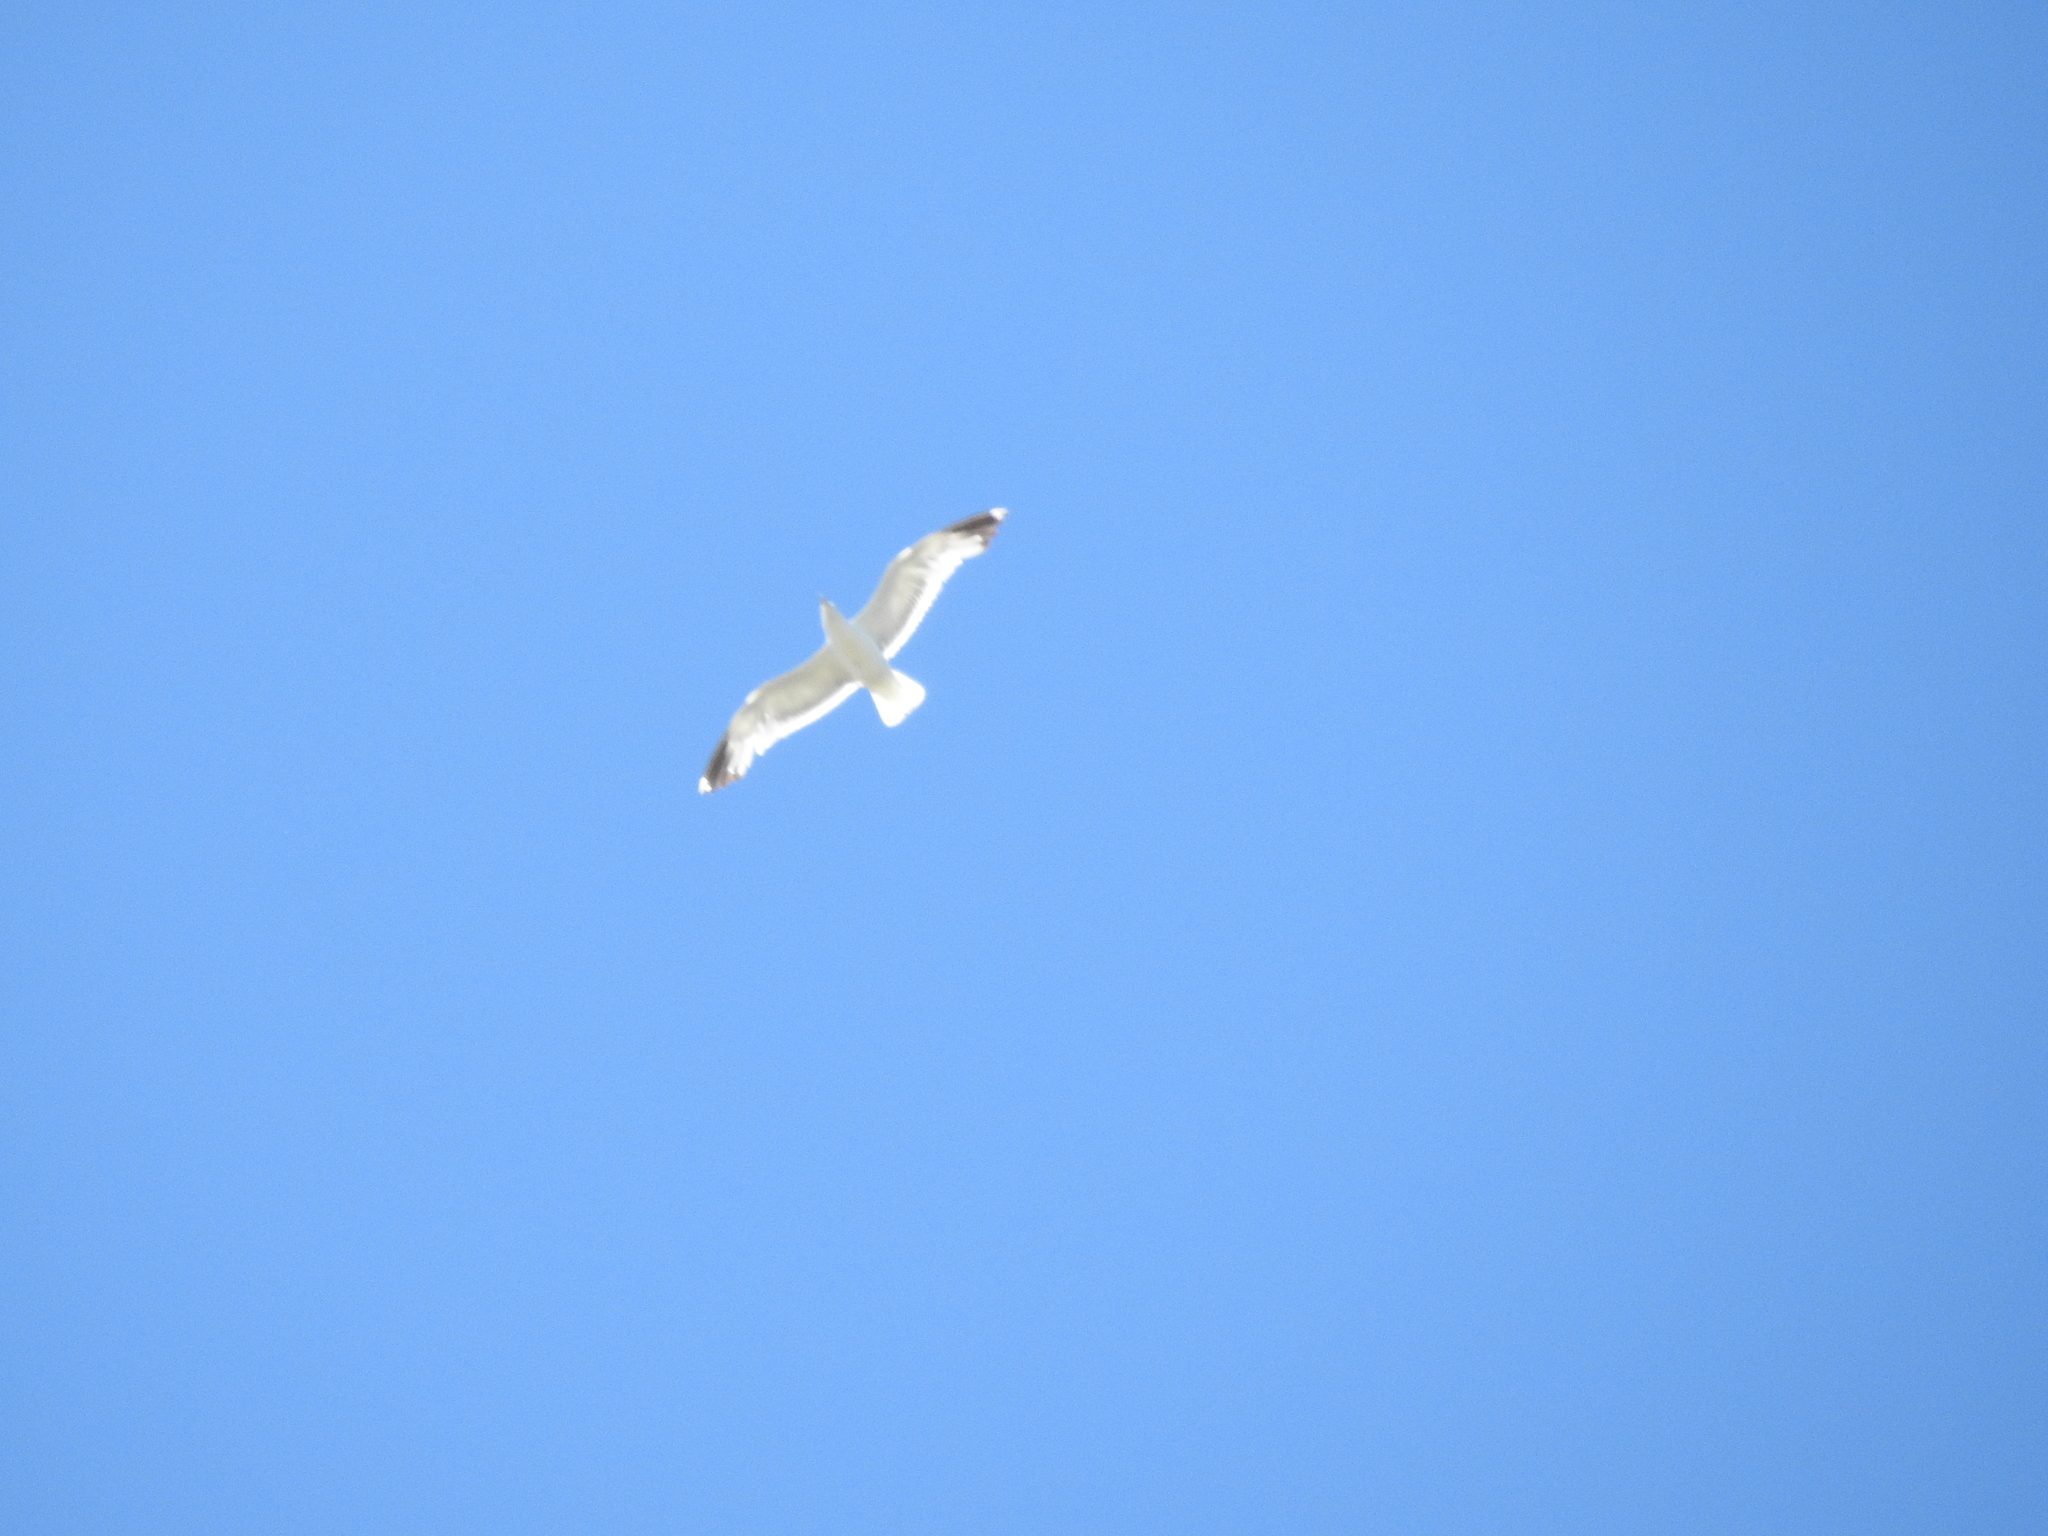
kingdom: Animalia
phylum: Chordata
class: Aves
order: Charadriiformes
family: Laridae
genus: Larus
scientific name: Larus californicus
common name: California gull
